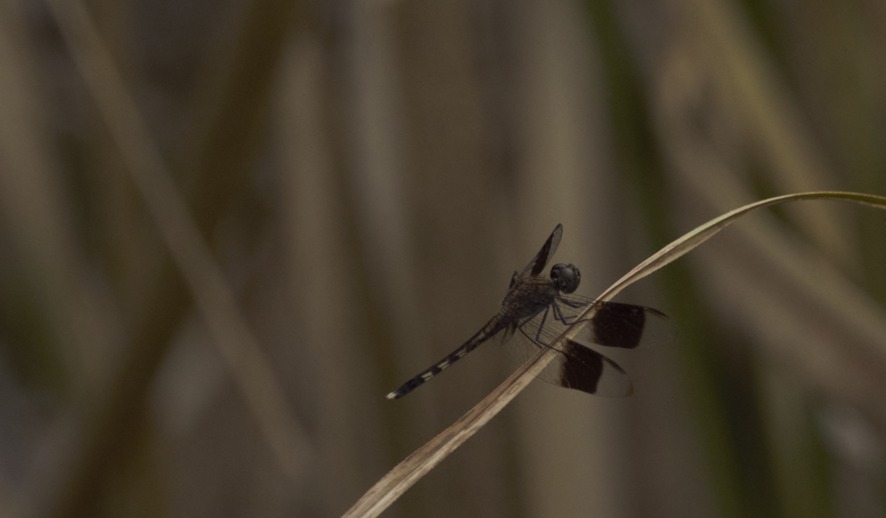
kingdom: Animalia
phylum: Arthropoda
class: Insecta
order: Odonata
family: Libellulidae
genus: Erythrodiplax
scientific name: Erythrodiplax umbrata
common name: Band-winged dragonlet
